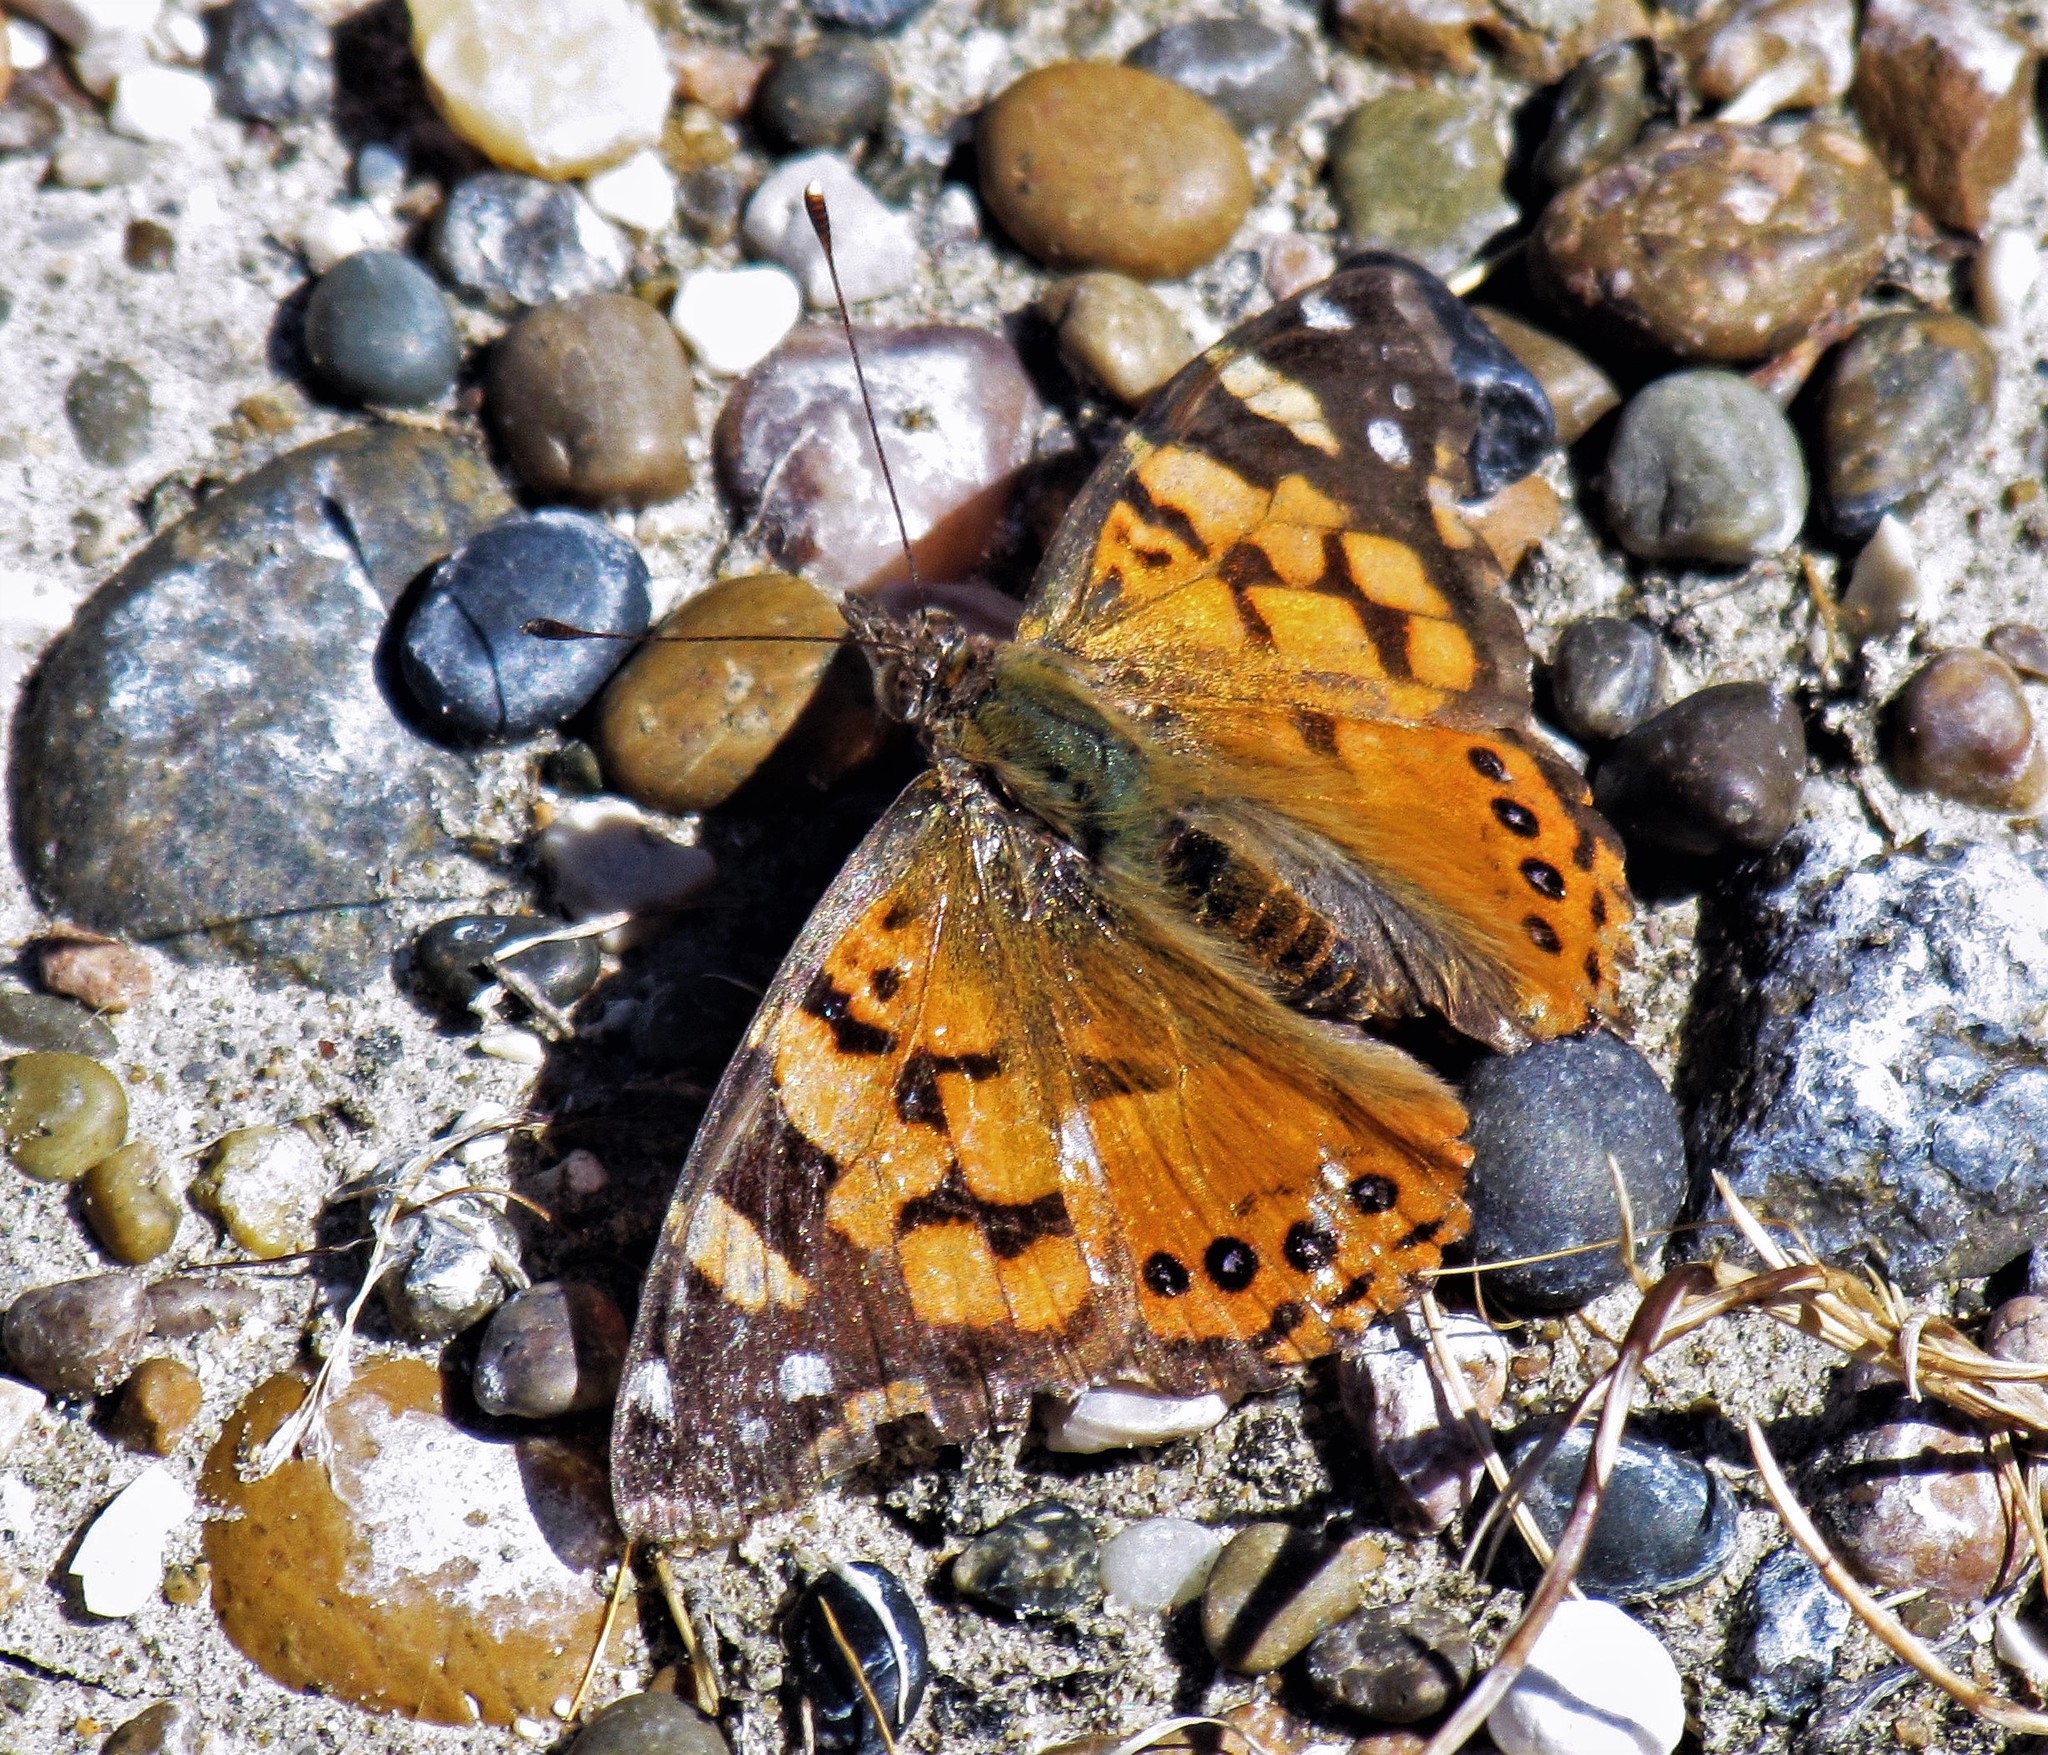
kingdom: Animalia
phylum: Arthropoda
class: Insecta
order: Lepidoptera
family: Nymphalidae
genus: Vanessa
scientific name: Vanessa carye
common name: Subtropical lady
